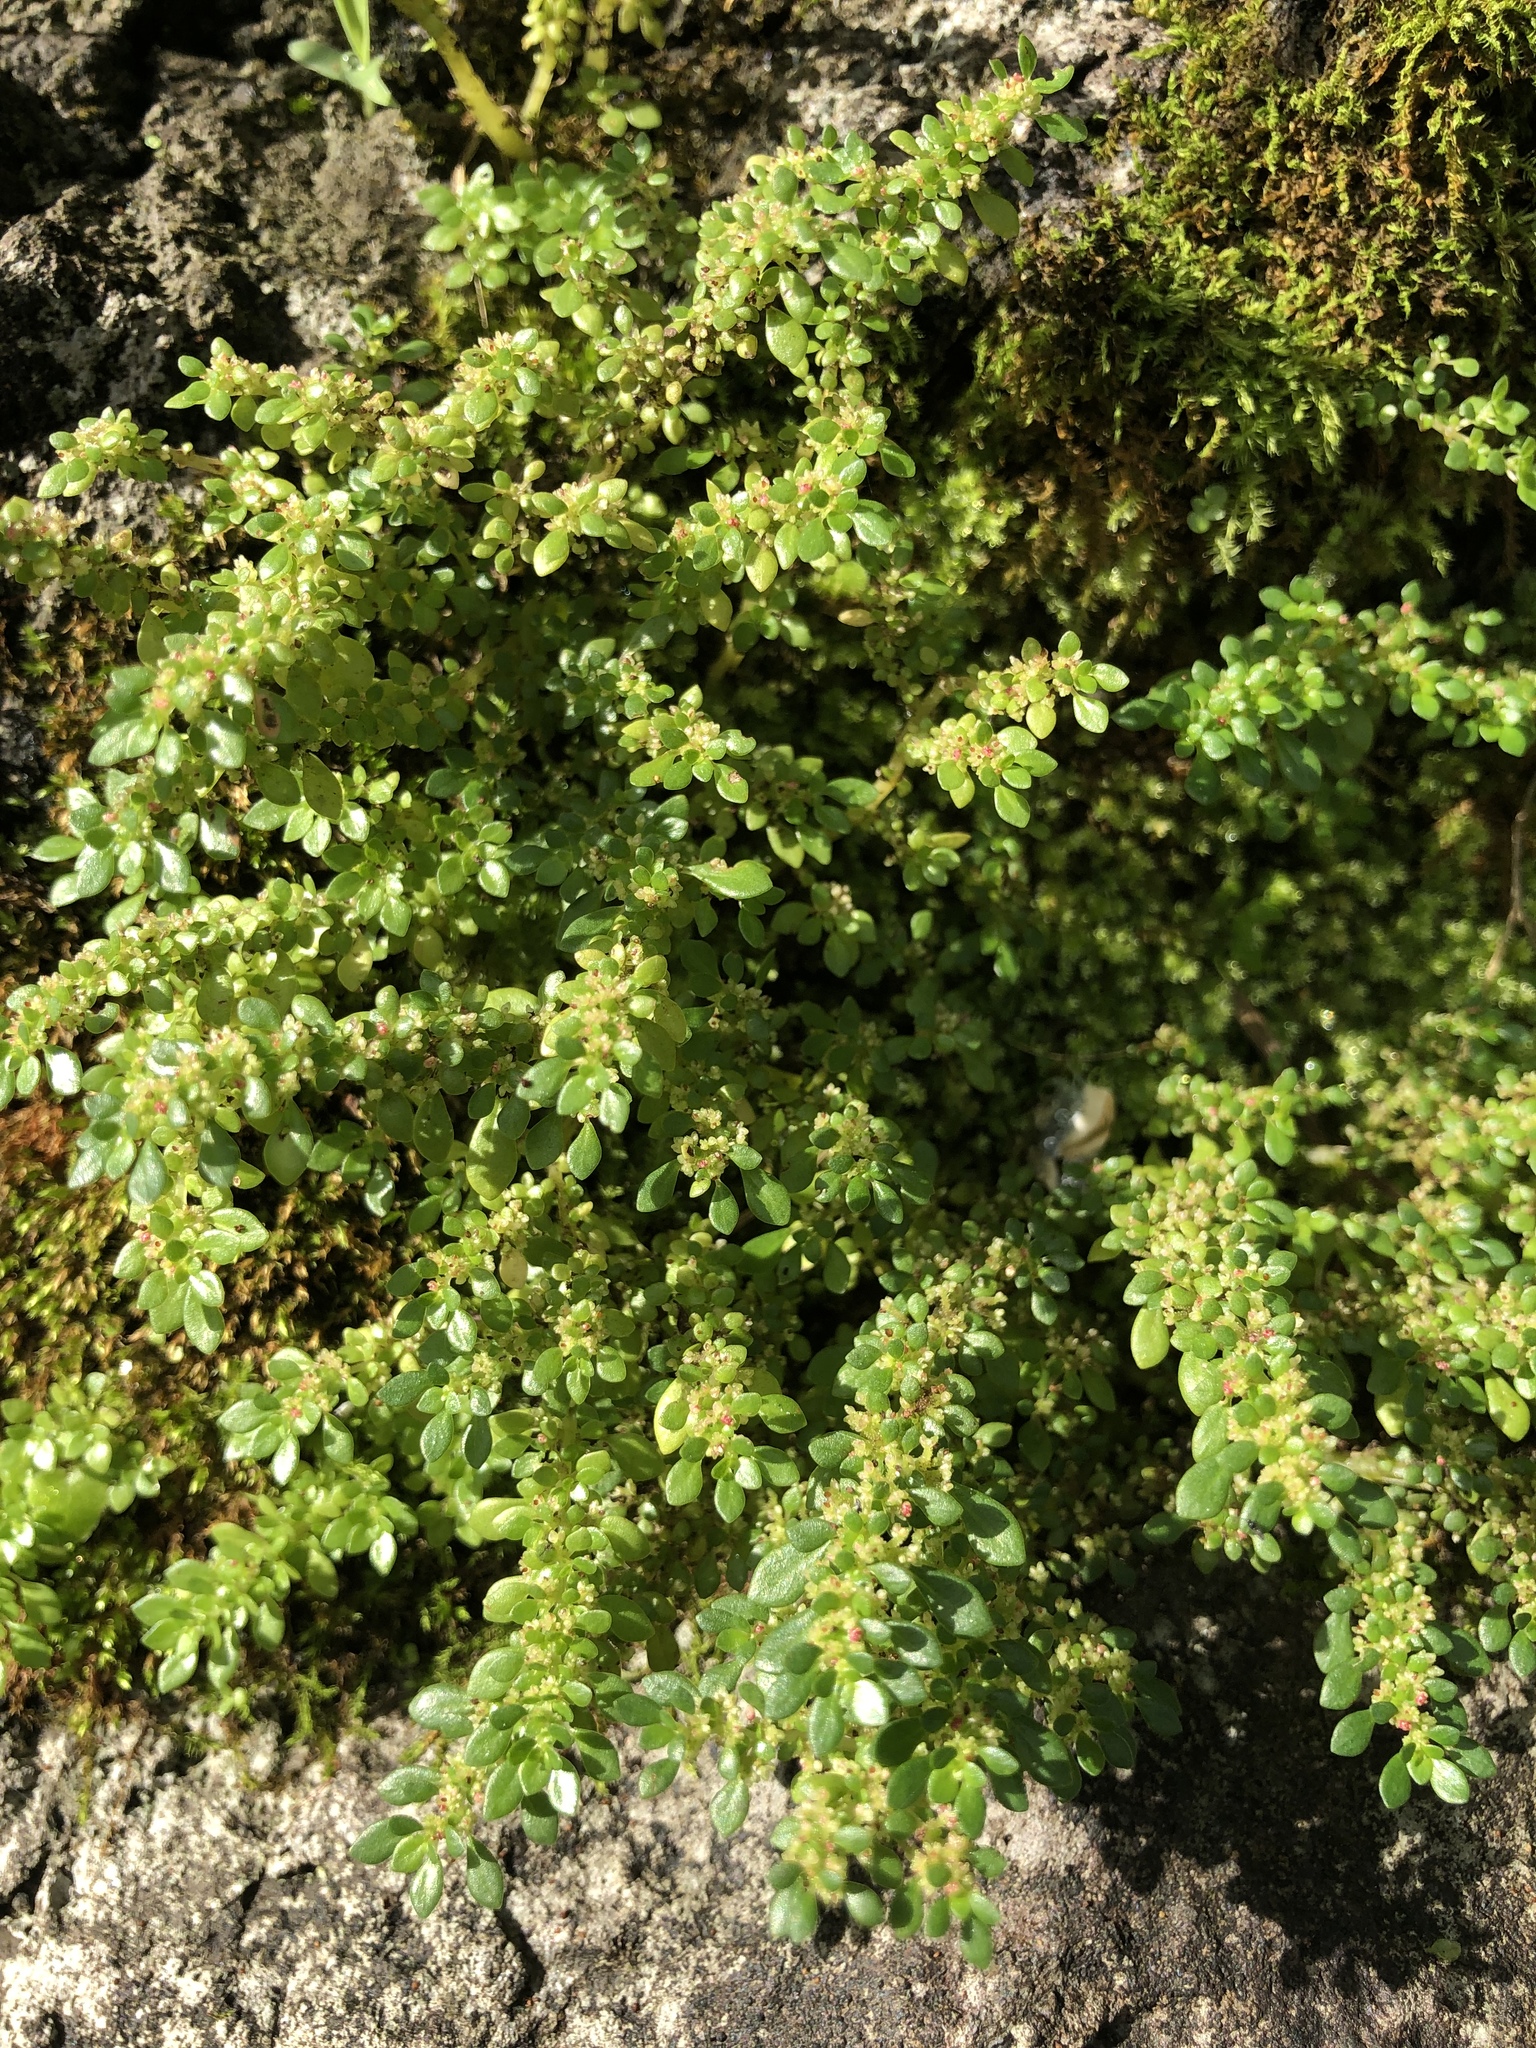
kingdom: Plantae
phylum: Tracheophyta
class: Magnoliopsida
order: Rosales
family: Urticaceae
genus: Pilea
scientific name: Pilea microphylla
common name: Artillery-plant
